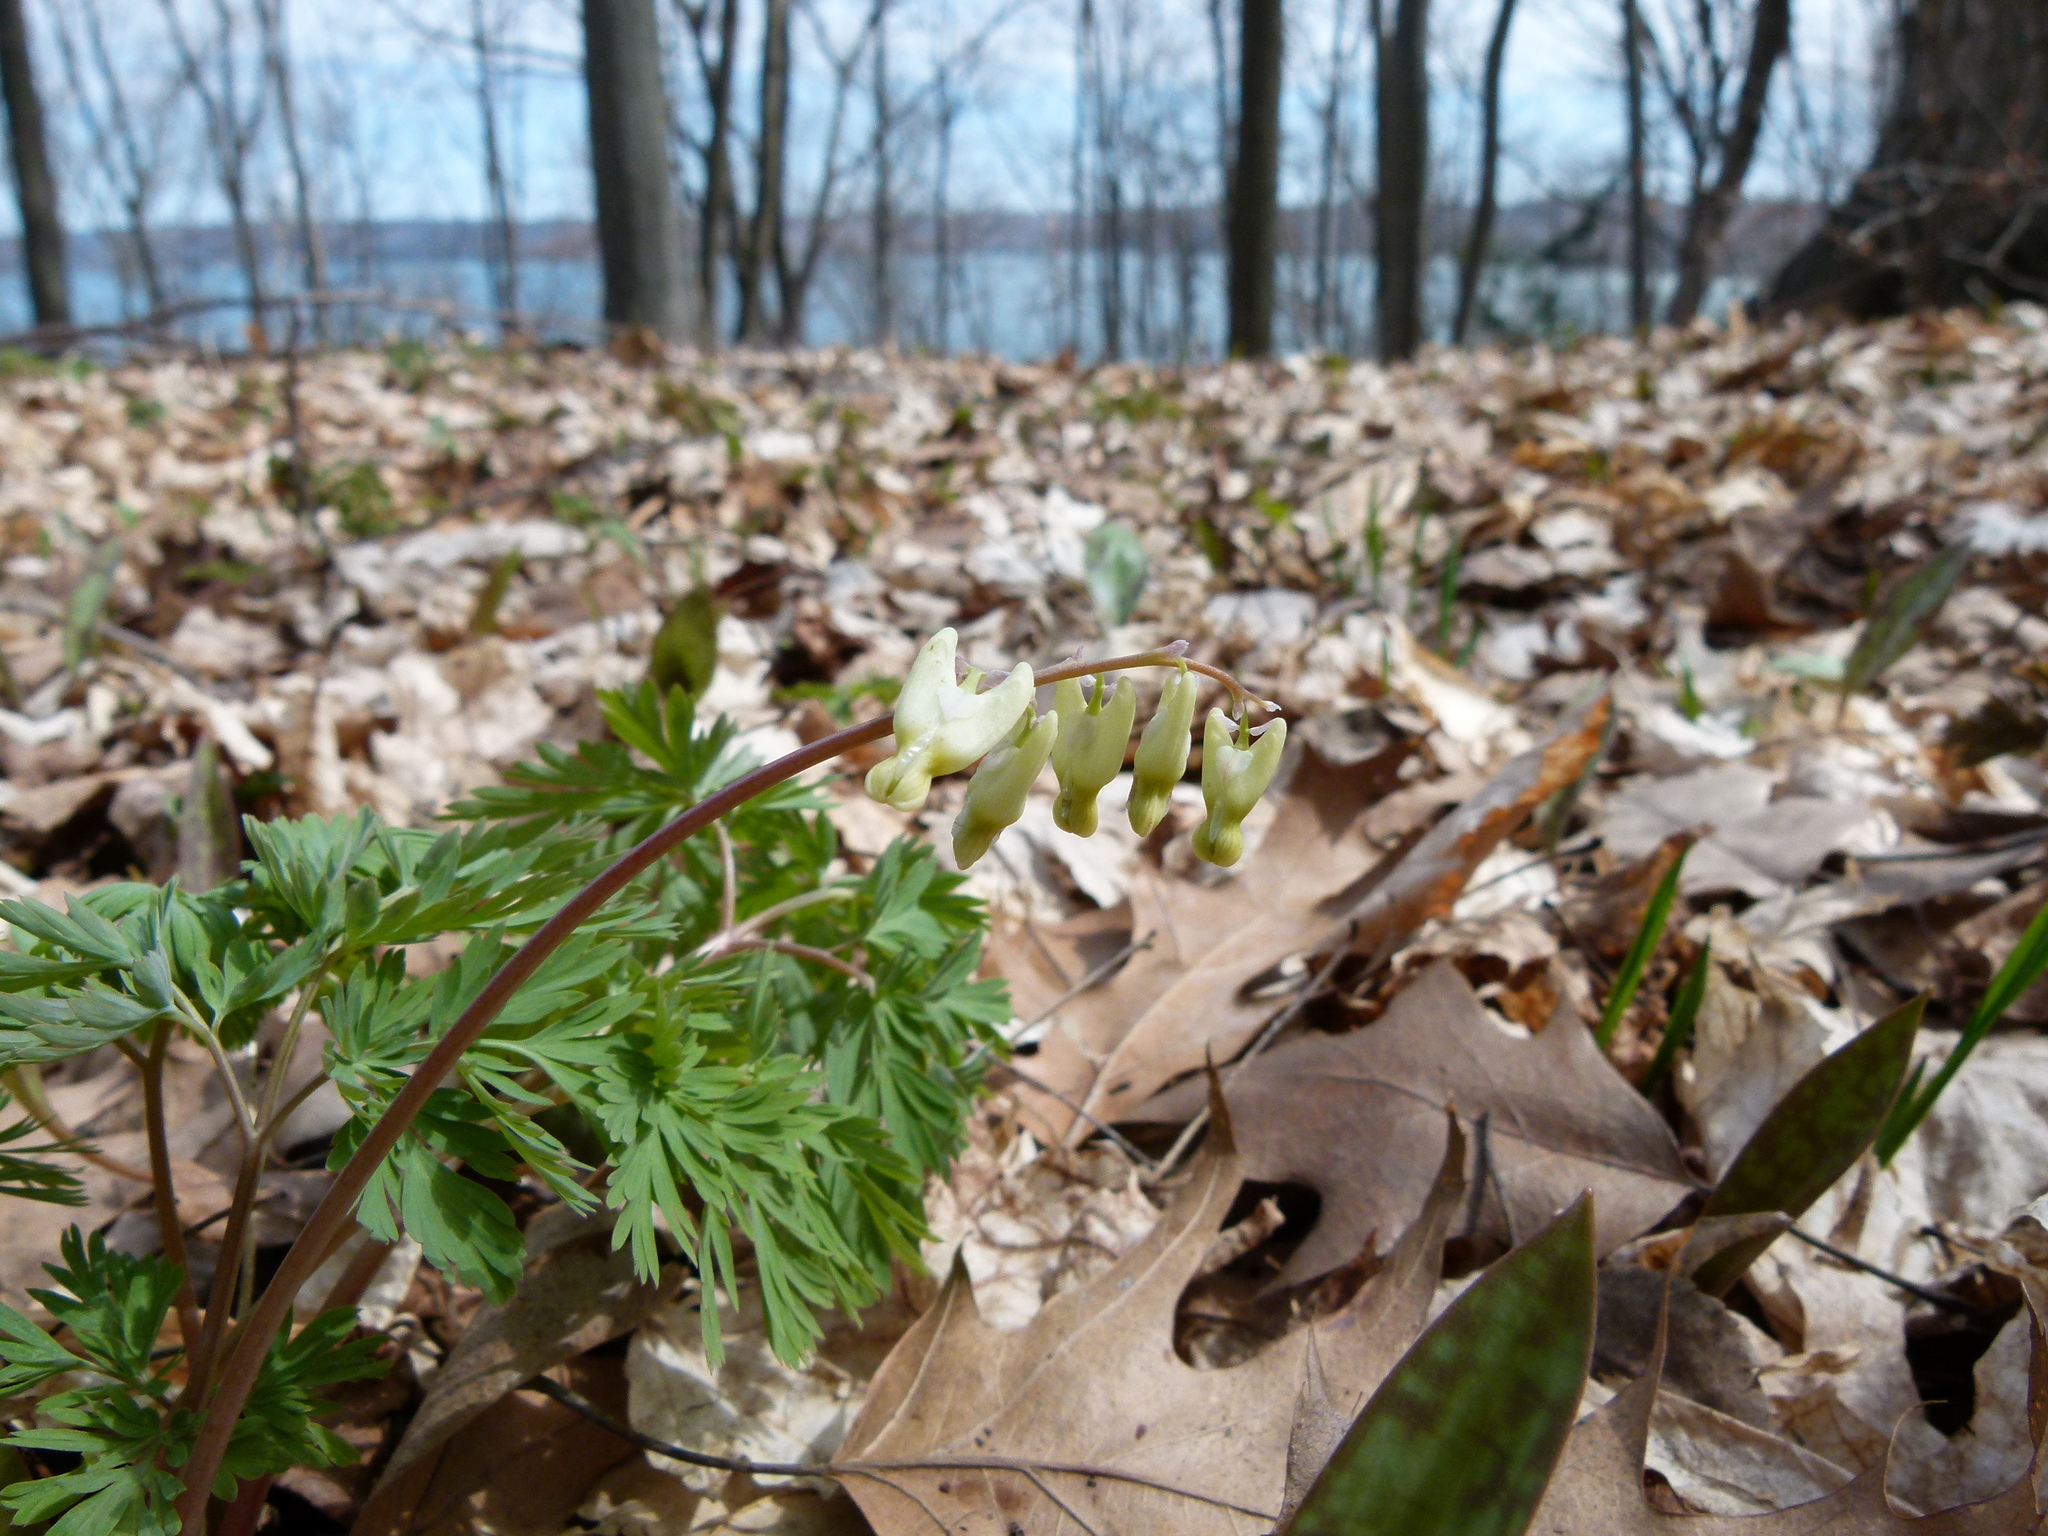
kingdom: Plantae
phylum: Tracheophyta
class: Magnoliopsida
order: Ranunculales
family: Papaveraceae
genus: Dicentra
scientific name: Dicentra cucullaria
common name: Dutchman's breeches
